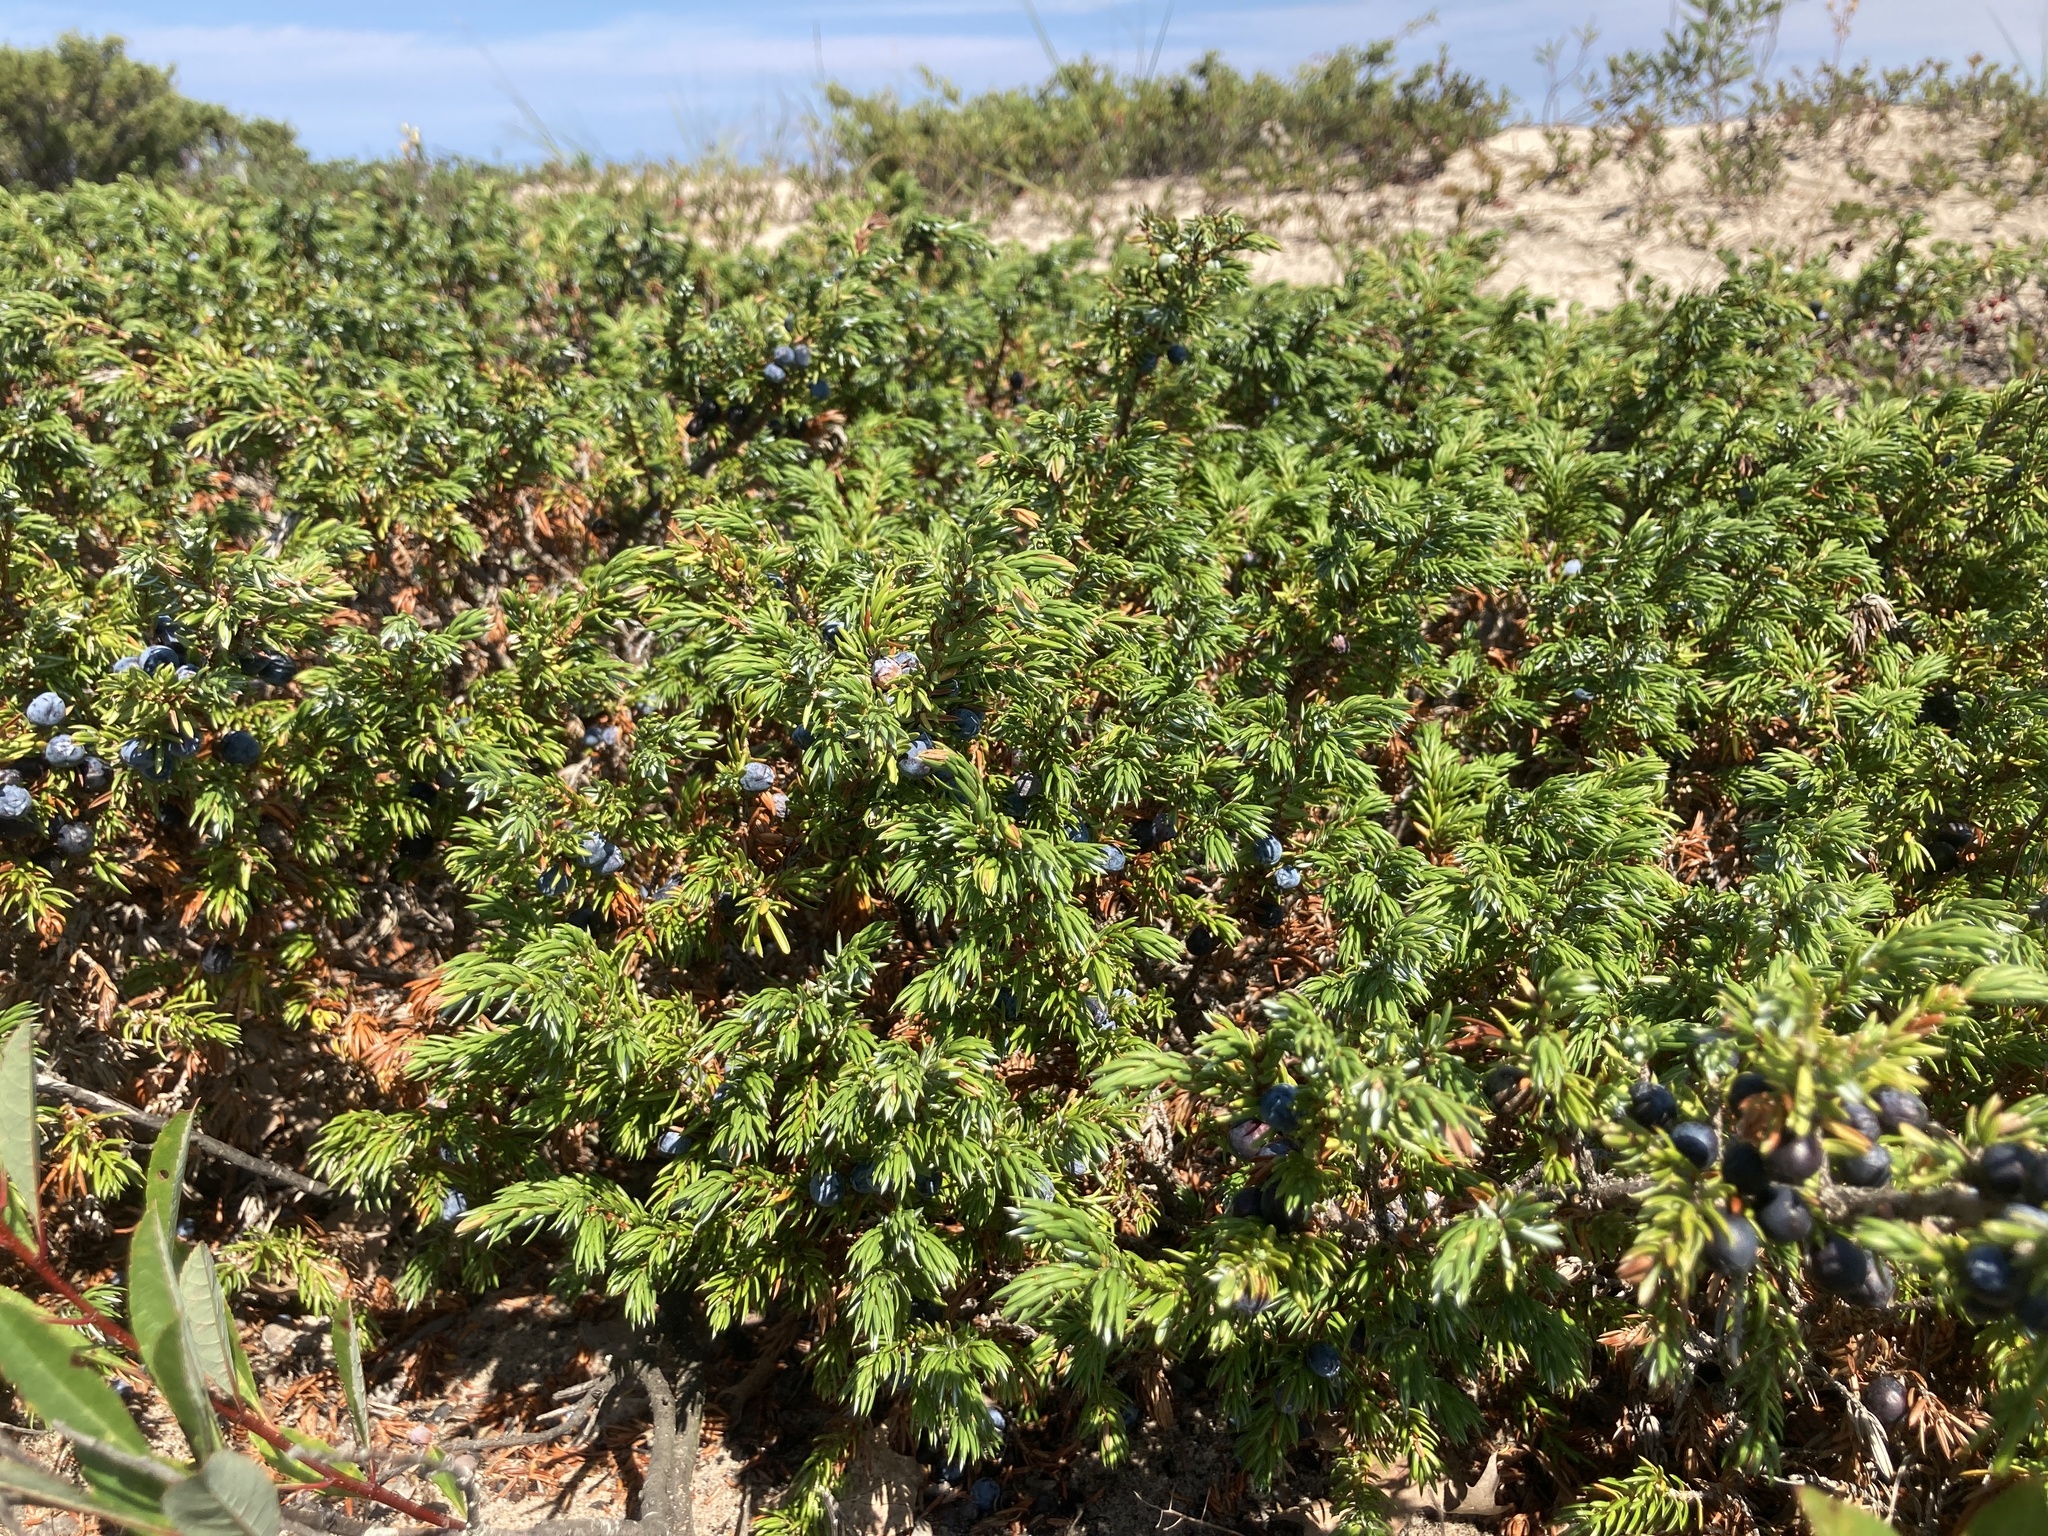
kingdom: Plantae
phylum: Tracheophyta
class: Pinopsida
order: Pinales
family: Cupressaceae
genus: Juniperus
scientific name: Juniperus communis
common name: Common juniper
